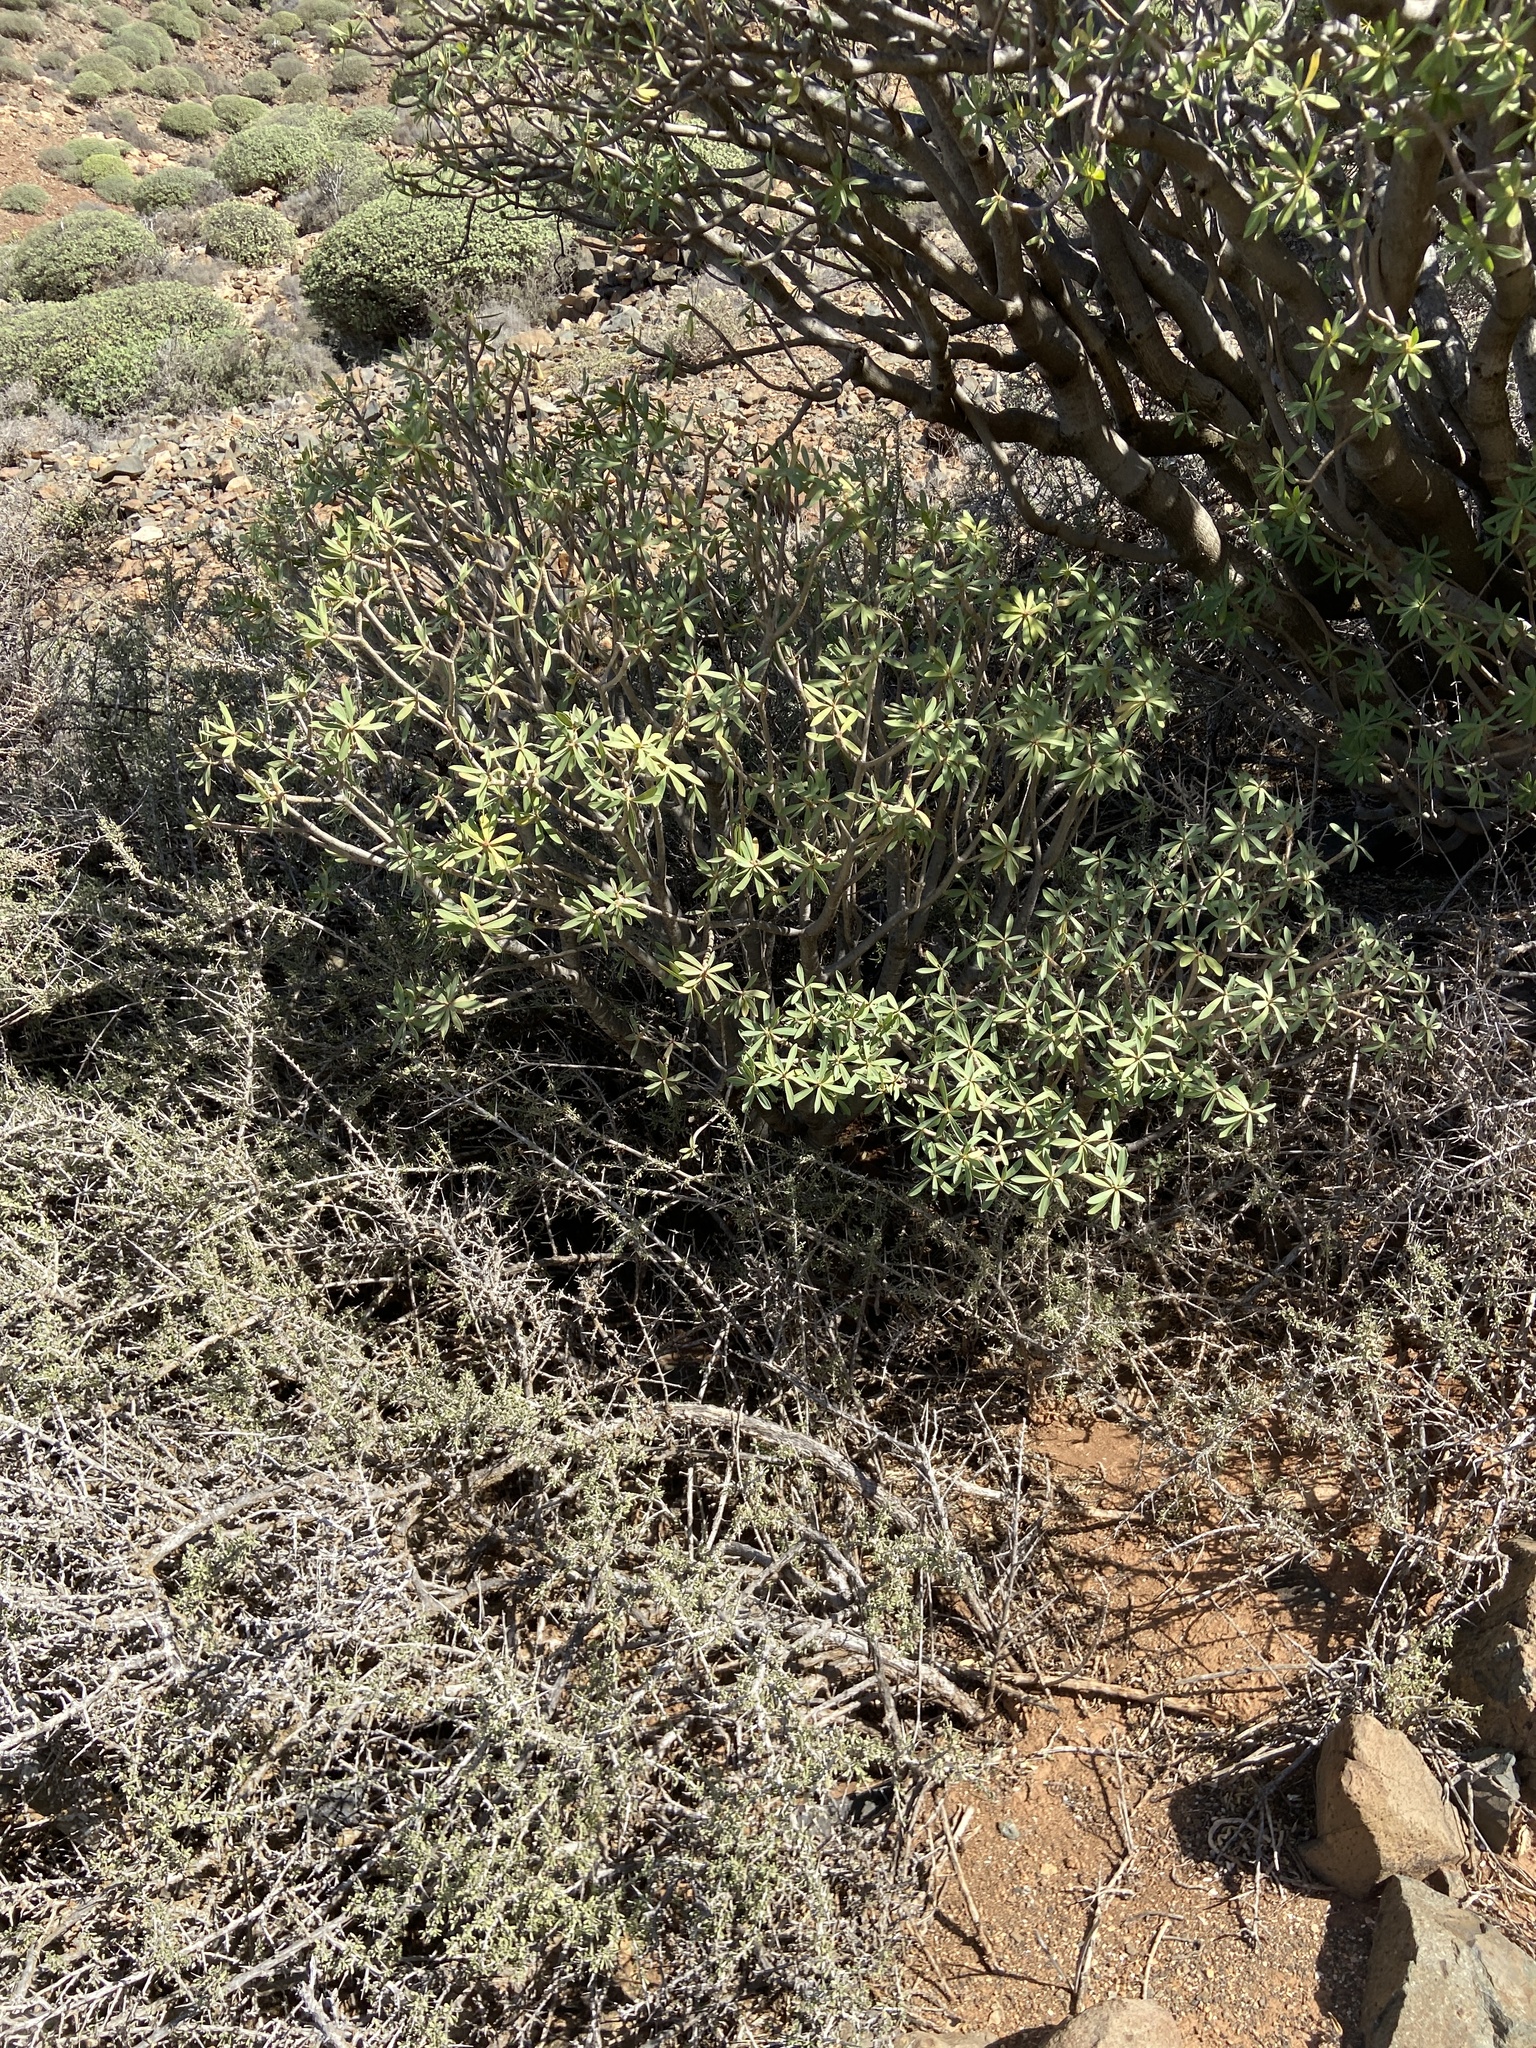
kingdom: Plantae
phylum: Tracheophyta
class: Magnoliopsida
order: Malpighiales
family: Euphorbiaceae
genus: Euphorbia
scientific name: Euphorbia balsamifera
